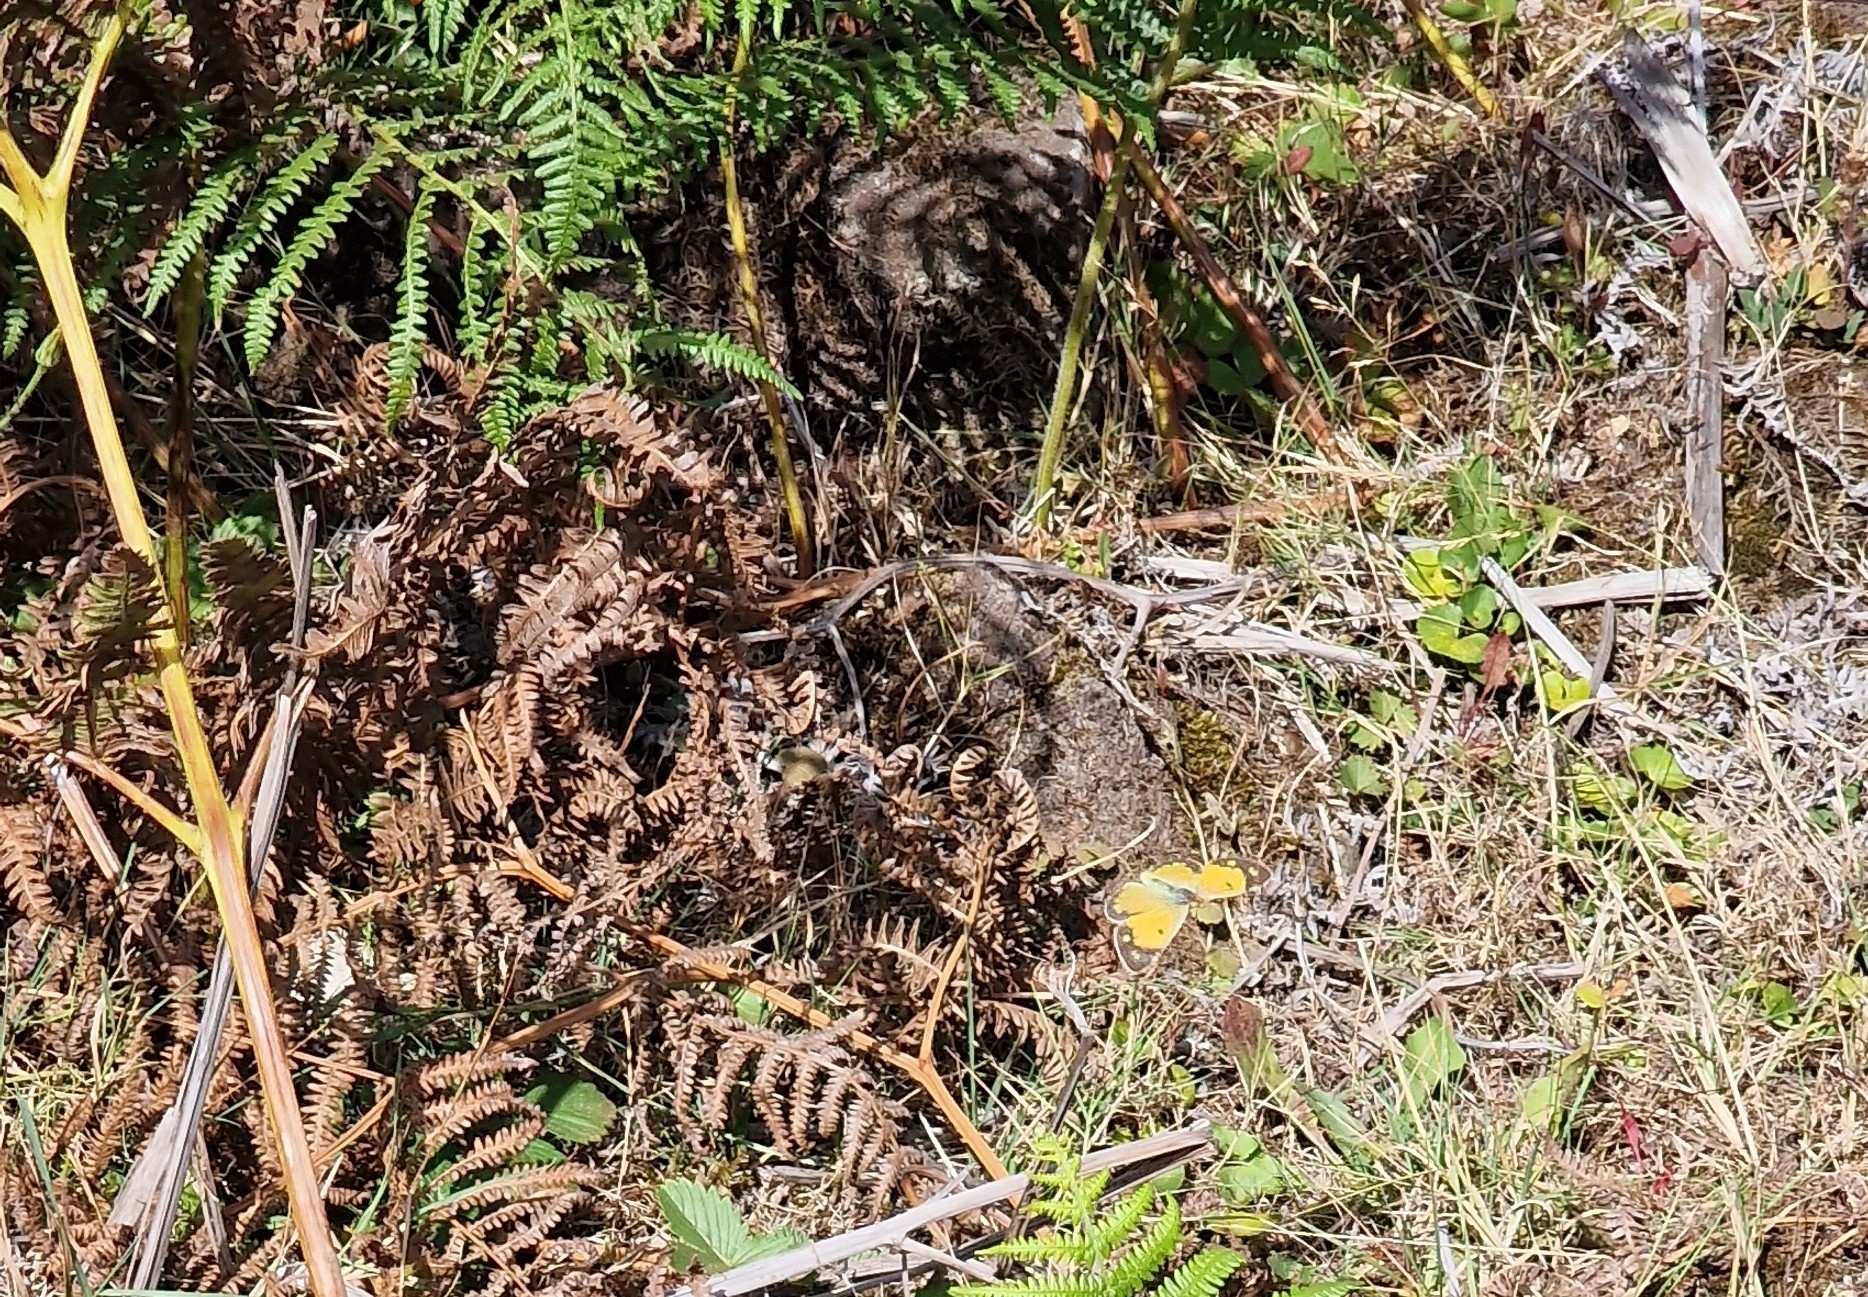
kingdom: Animalia
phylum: Arthropoda
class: Insecta
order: Lepidoptera
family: Pieridae
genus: Colias
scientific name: Colias croceus
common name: Clouded yellow
